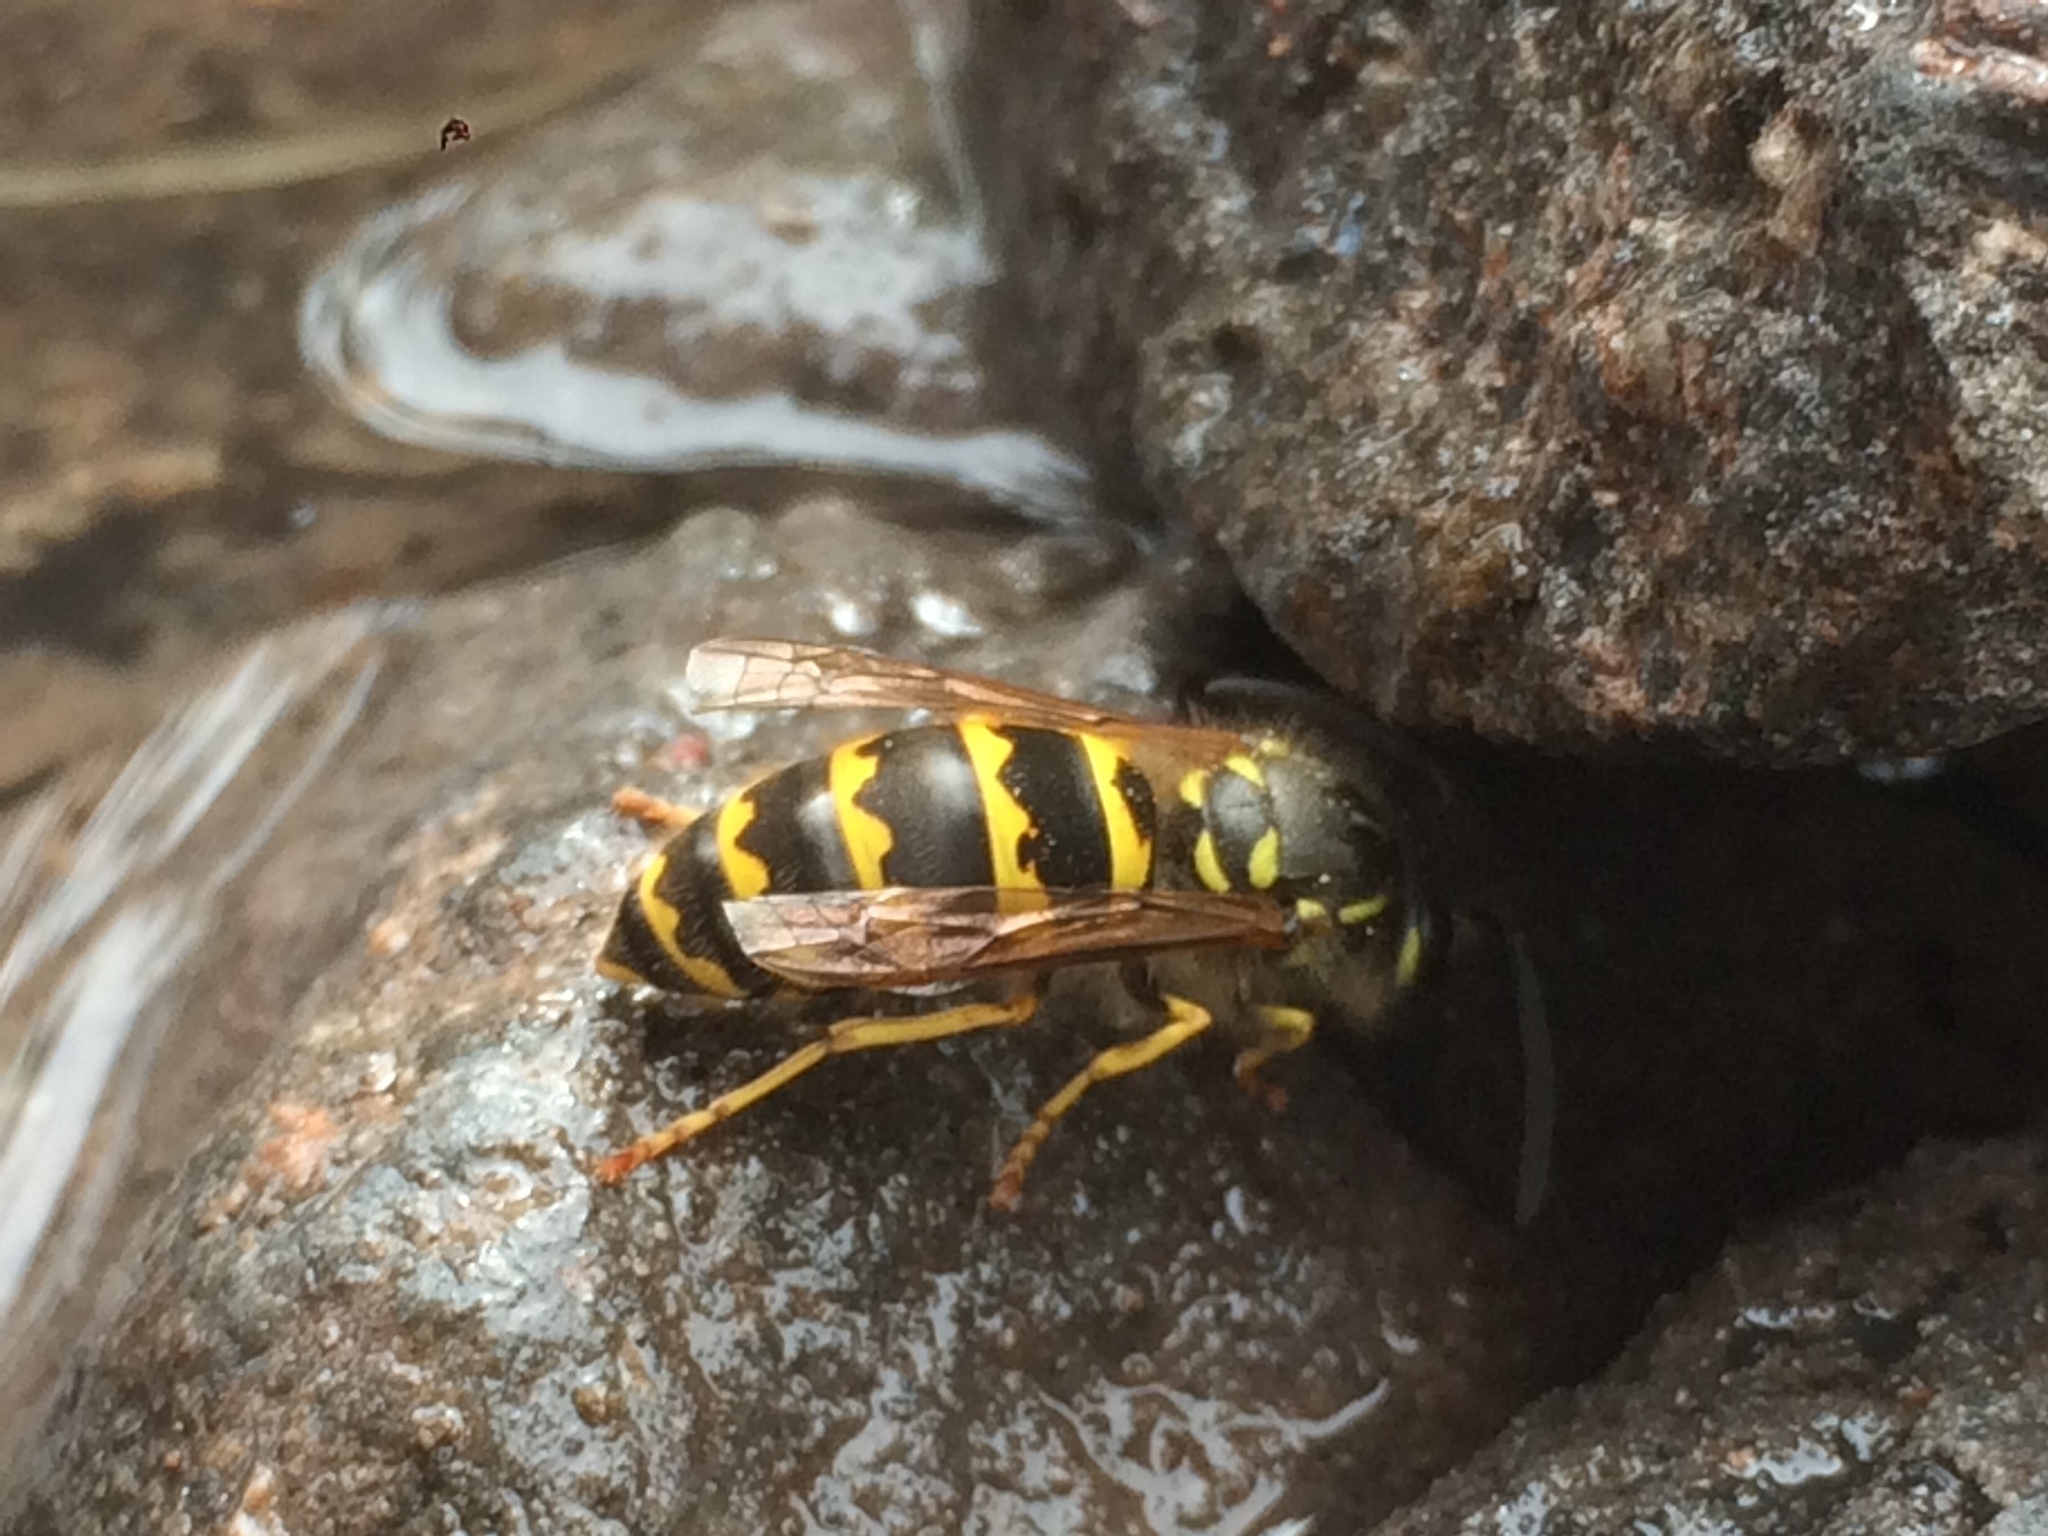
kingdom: Animalia
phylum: Arthropoda
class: Insecta
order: Hymenoptera
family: Vespidae
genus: Vespula
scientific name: Vespula alascensis
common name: Alaska yellowjacket
